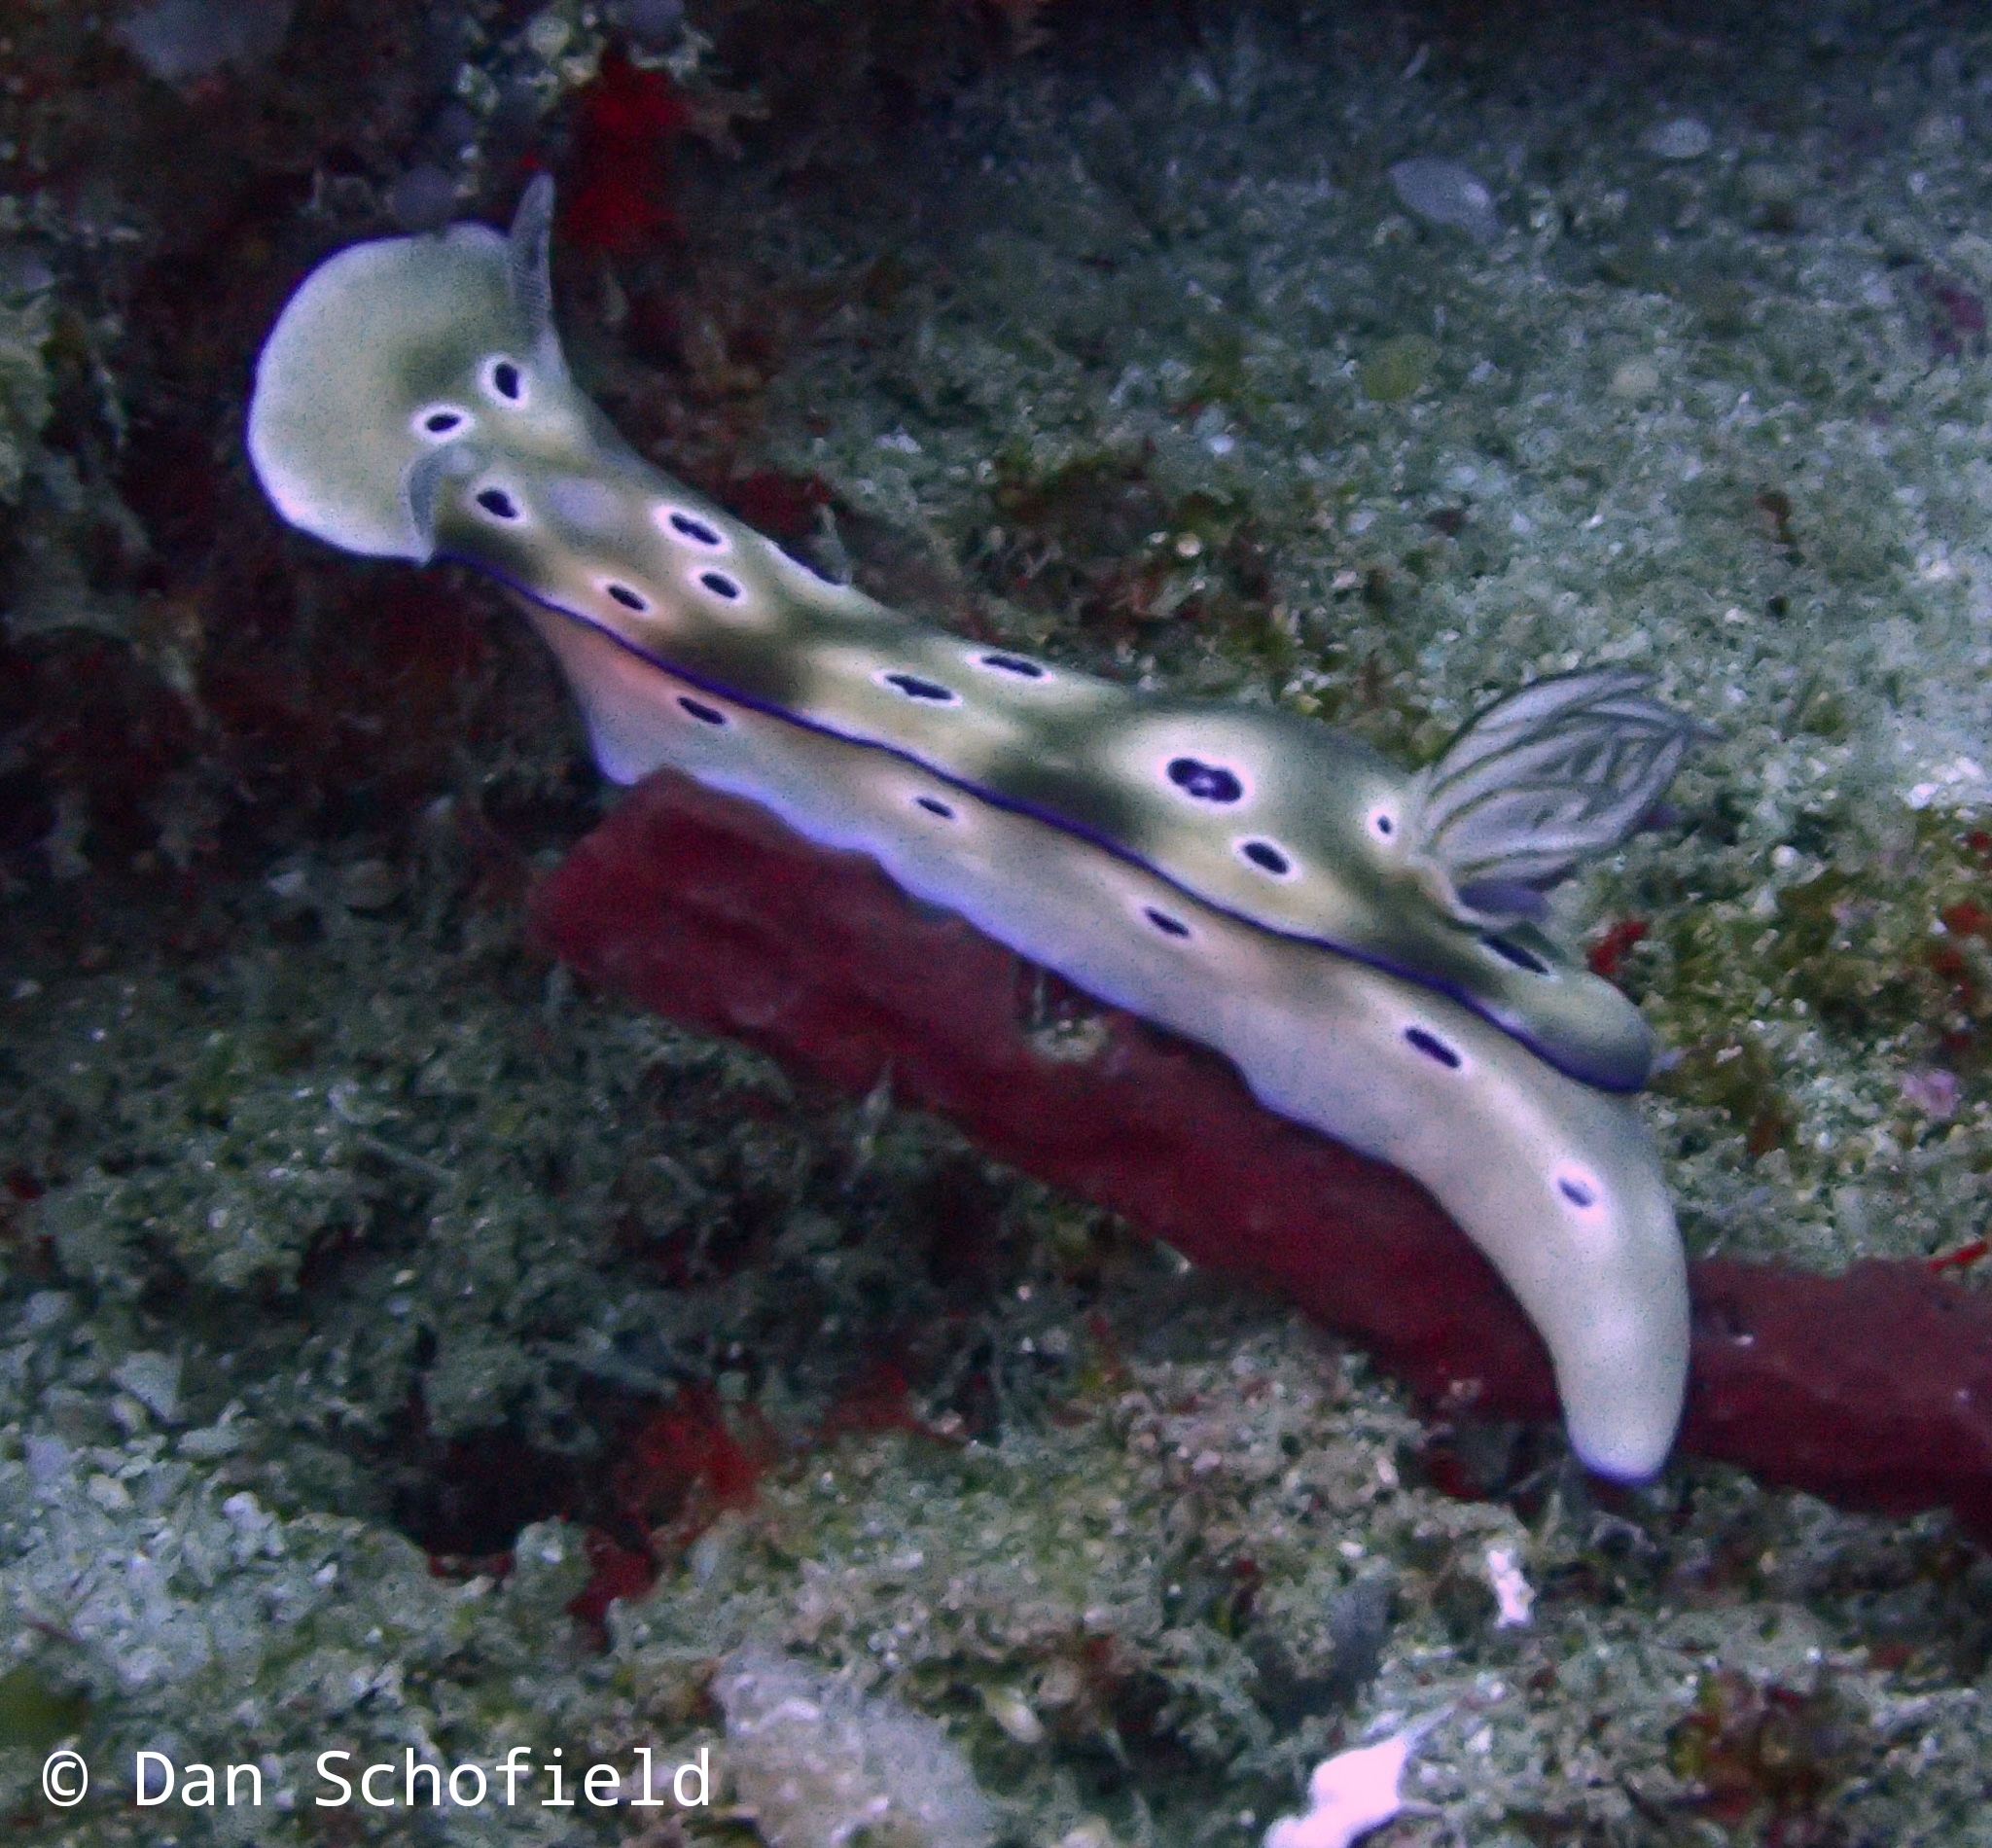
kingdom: Animalia
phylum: Mollusca
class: Gastropoda
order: Nudibranchia
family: Chromodorididae
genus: Hypselodoris
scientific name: Hypselodoris tryoni
